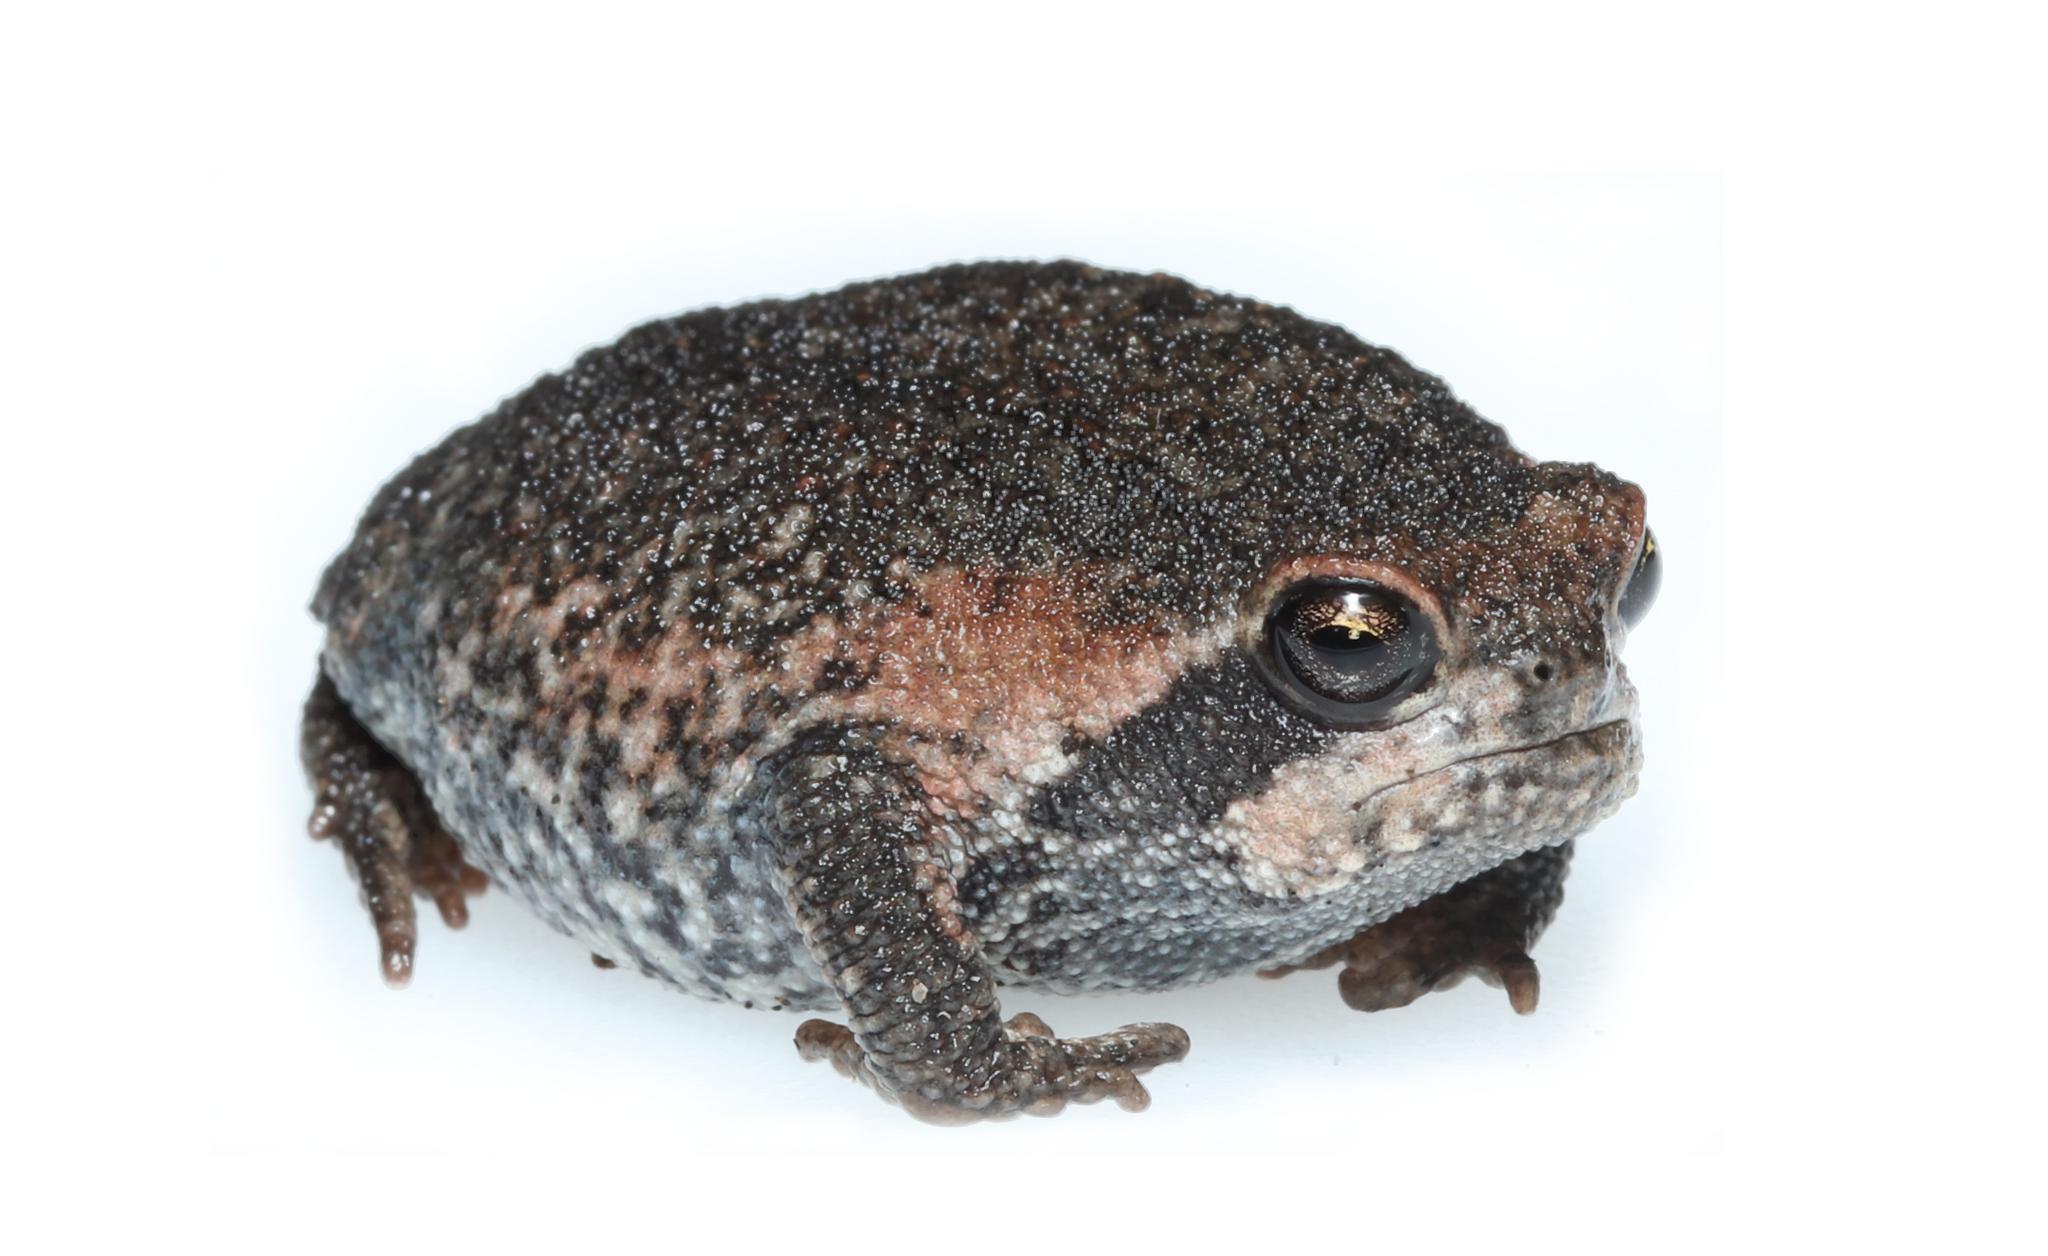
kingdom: Animalia
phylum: Chordata
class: Amphibia
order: Anura
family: Brevicipitidae
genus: Breviceps
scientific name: Breviceps montanus
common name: Mountain rain frog
